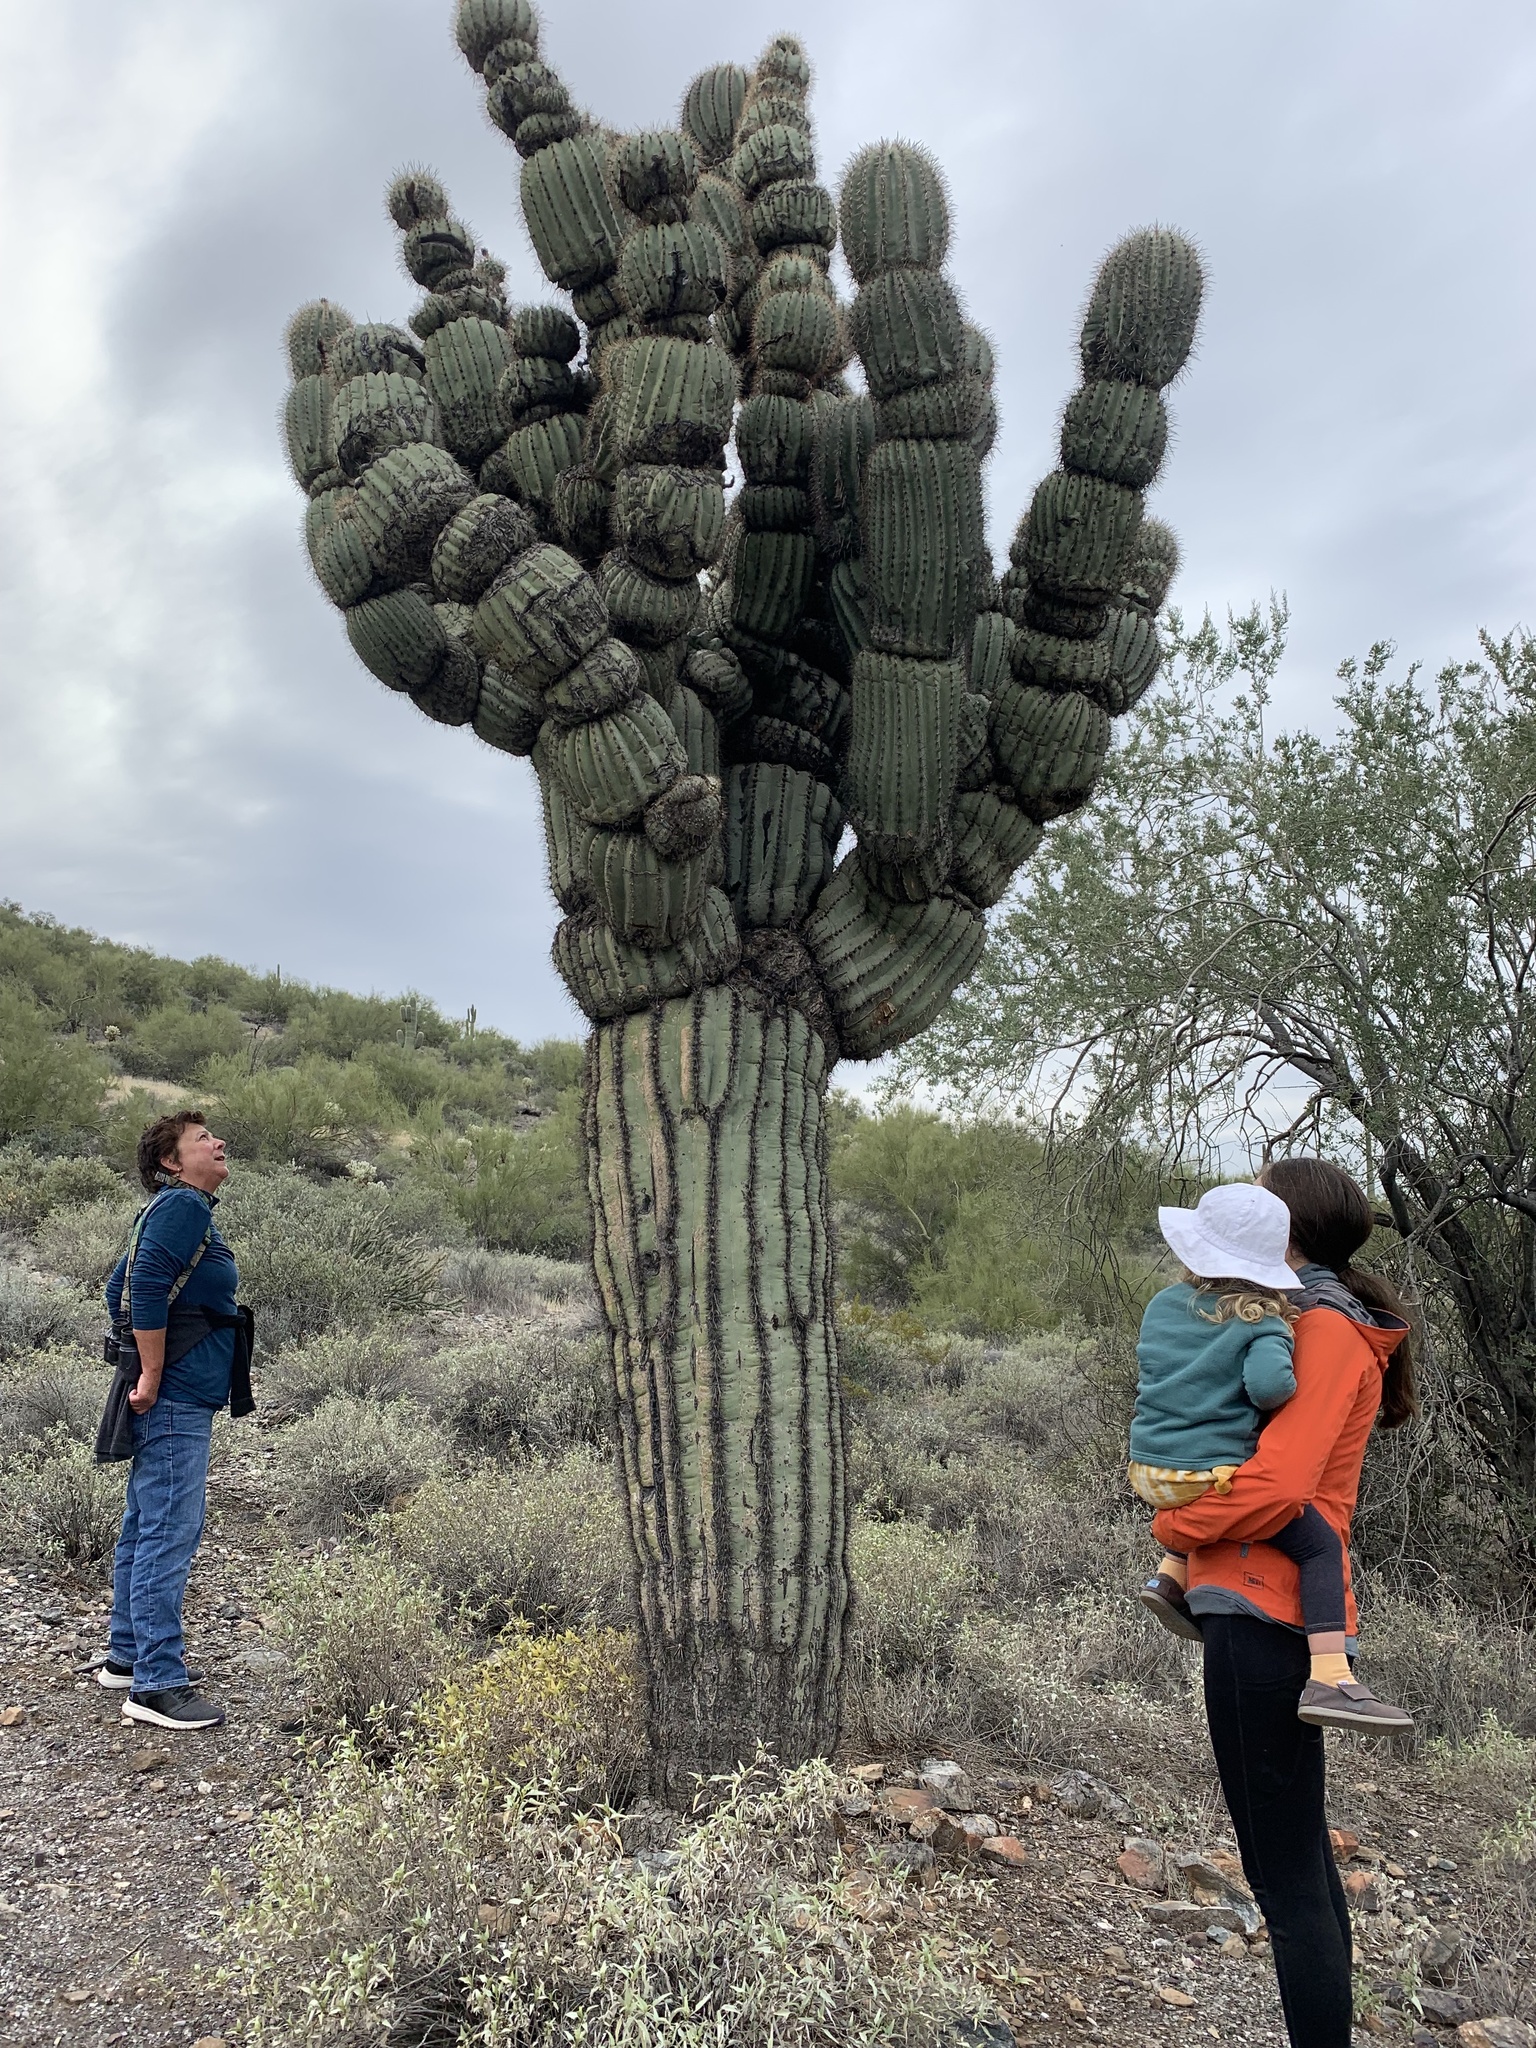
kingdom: Plantae
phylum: Tracheophyta
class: Magnoliopsida
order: Caryophyllales
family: Cactaceae
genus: Carnegiea
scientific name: Carnegiea gigantea
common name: Saguaro
